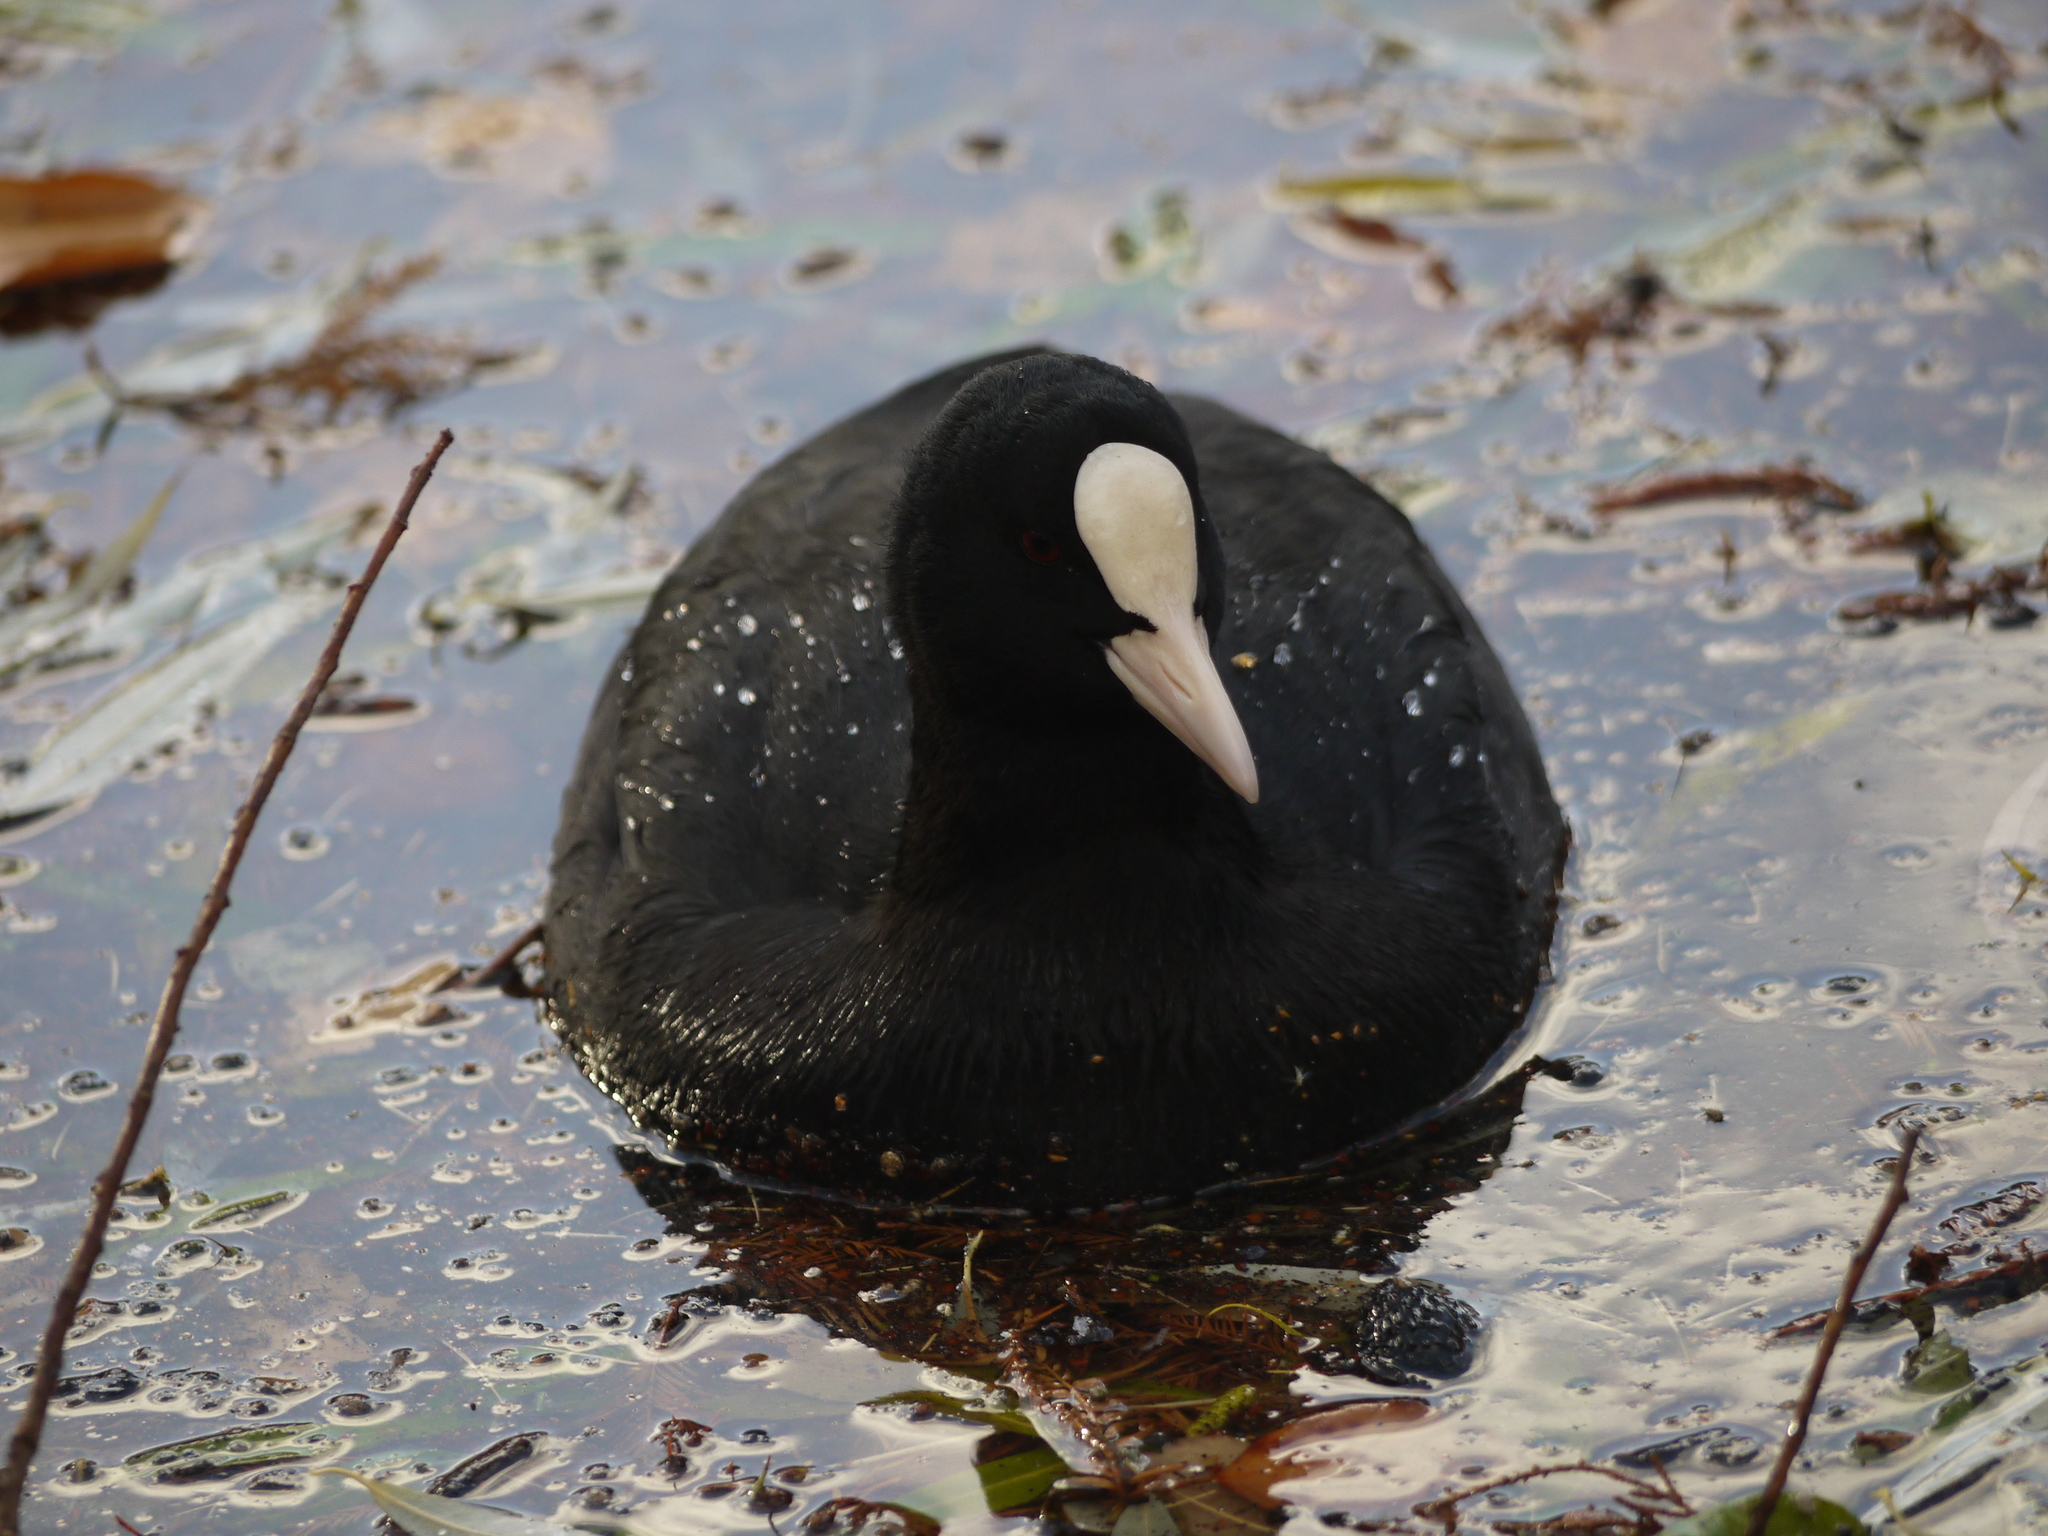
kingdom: Animalia
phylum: Chordata
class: Aves
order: Gruiformes
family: Rallidae
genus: Fulica
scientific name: Fulica atra
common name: Eurasian coot
